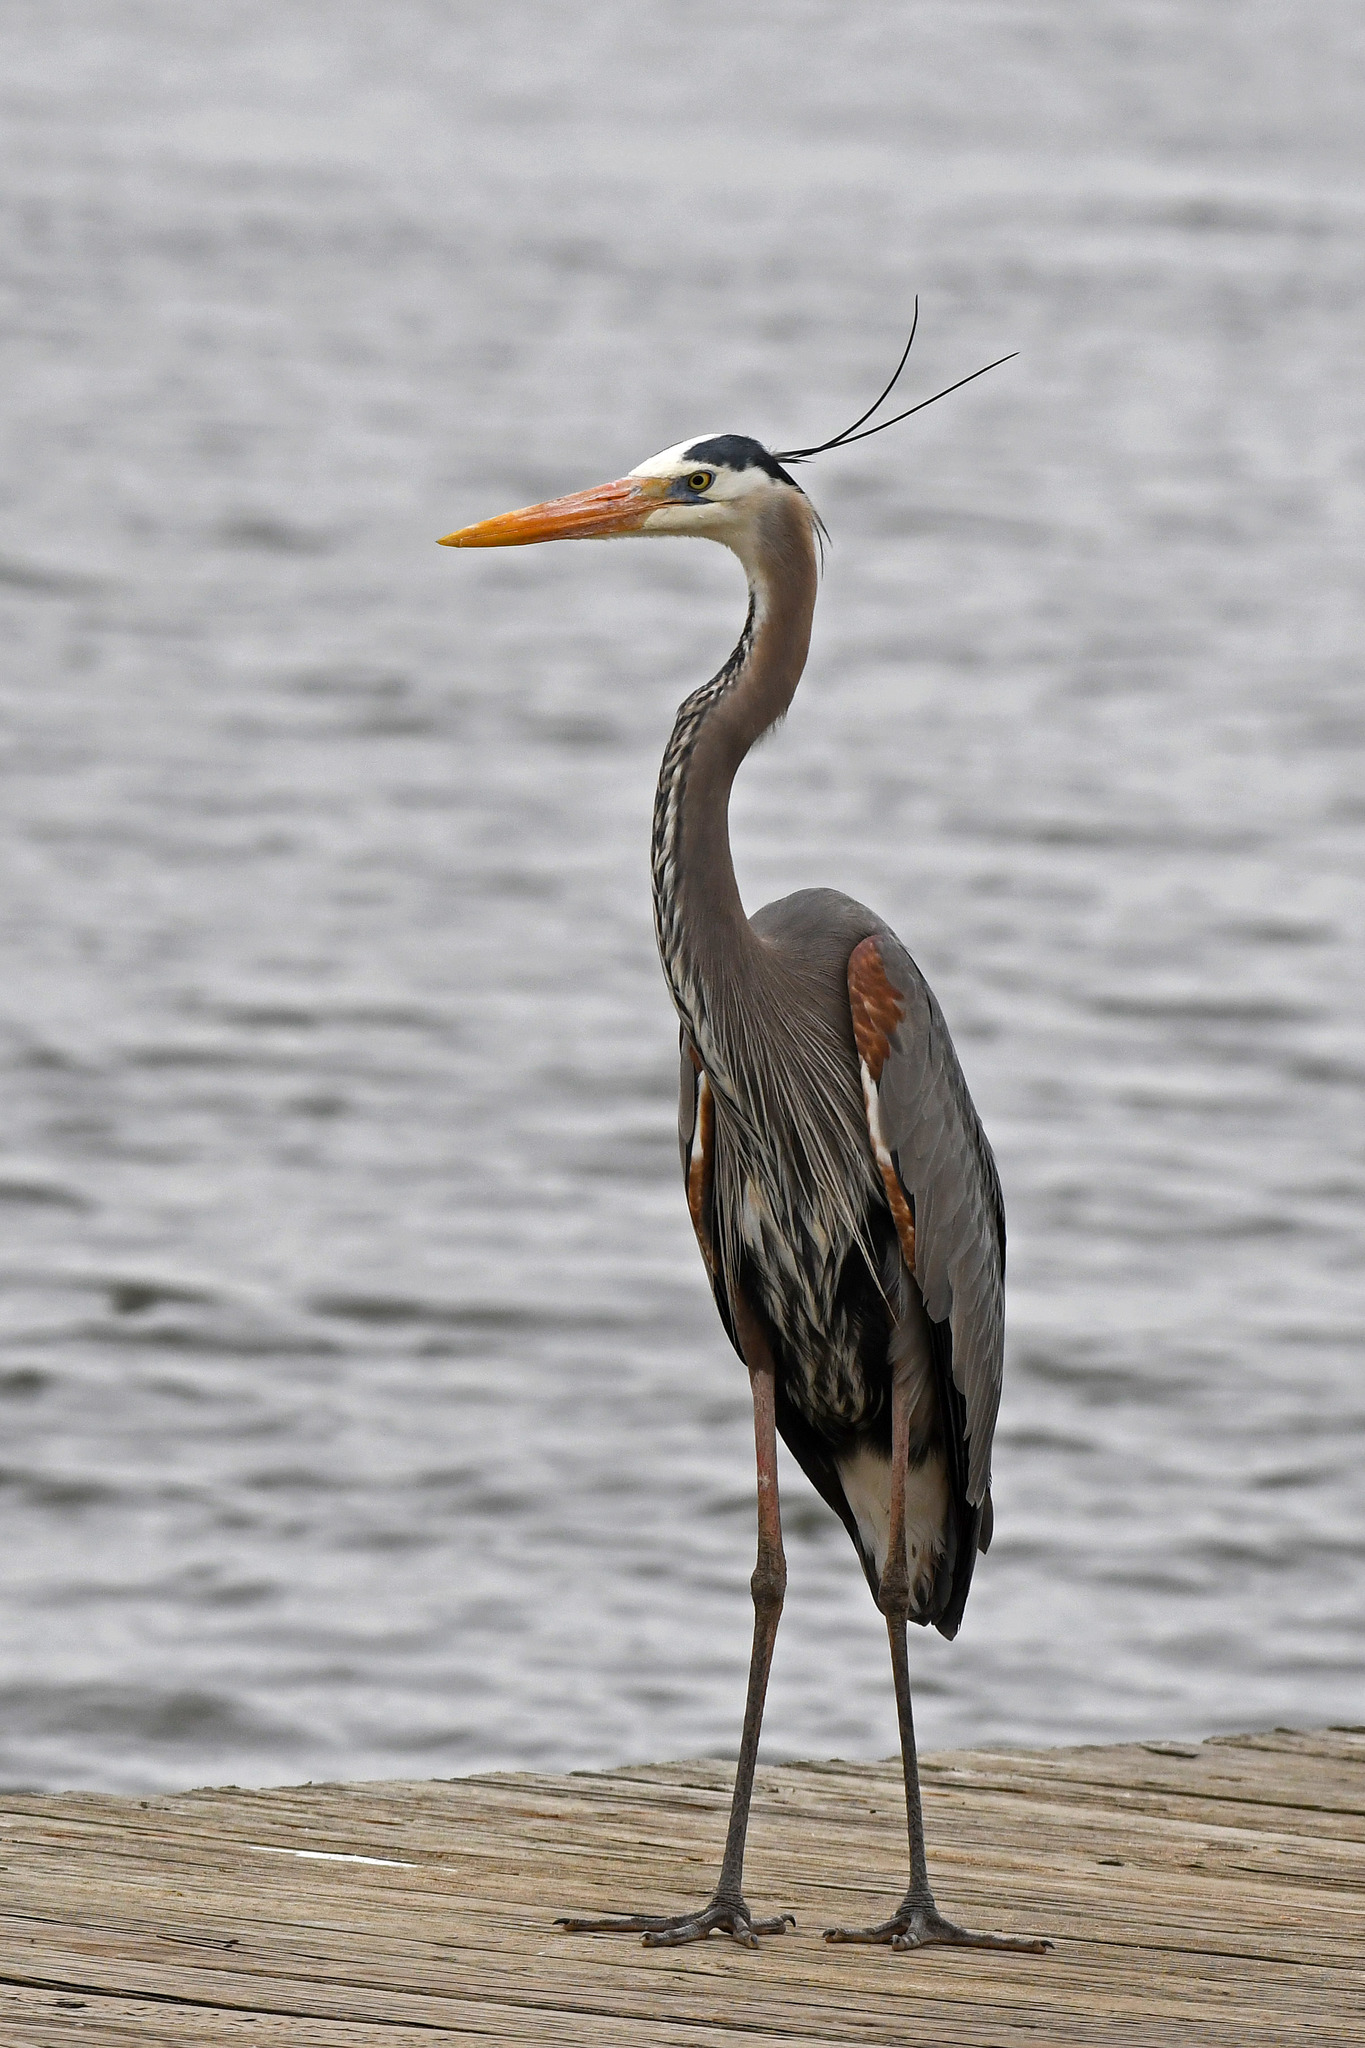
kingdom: Animalia
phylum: Chordata
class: Aves
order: Pelecaniformes
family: Ardeidae
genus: Ardea
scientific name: Ardea herodias
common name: Great blue heron
